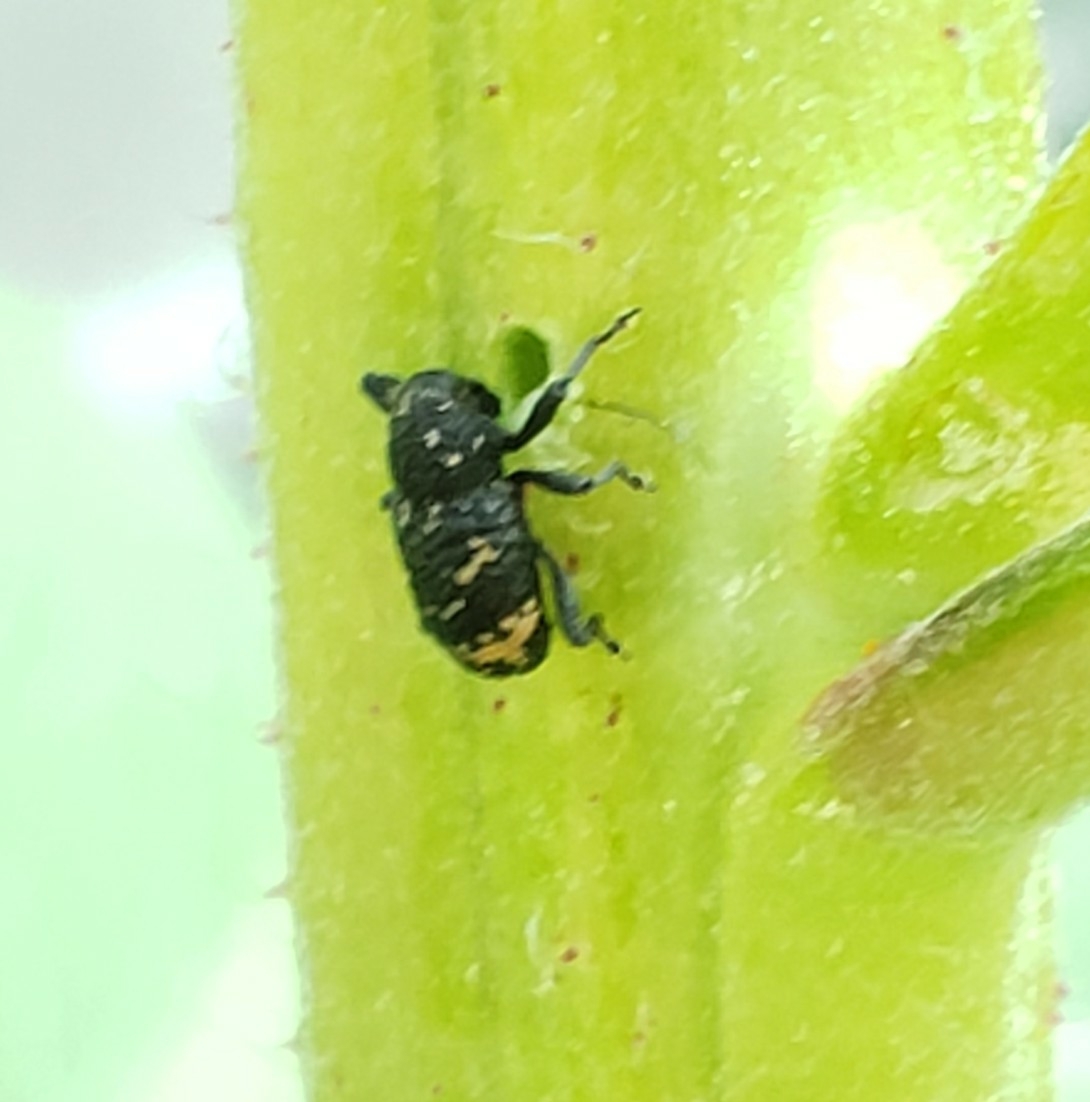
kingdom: Animalia
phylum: Arthropoda
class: Insecta
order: Coleoptera
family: Curculionidae
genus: Tyloderma
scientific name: Tyloderma foveolatum
